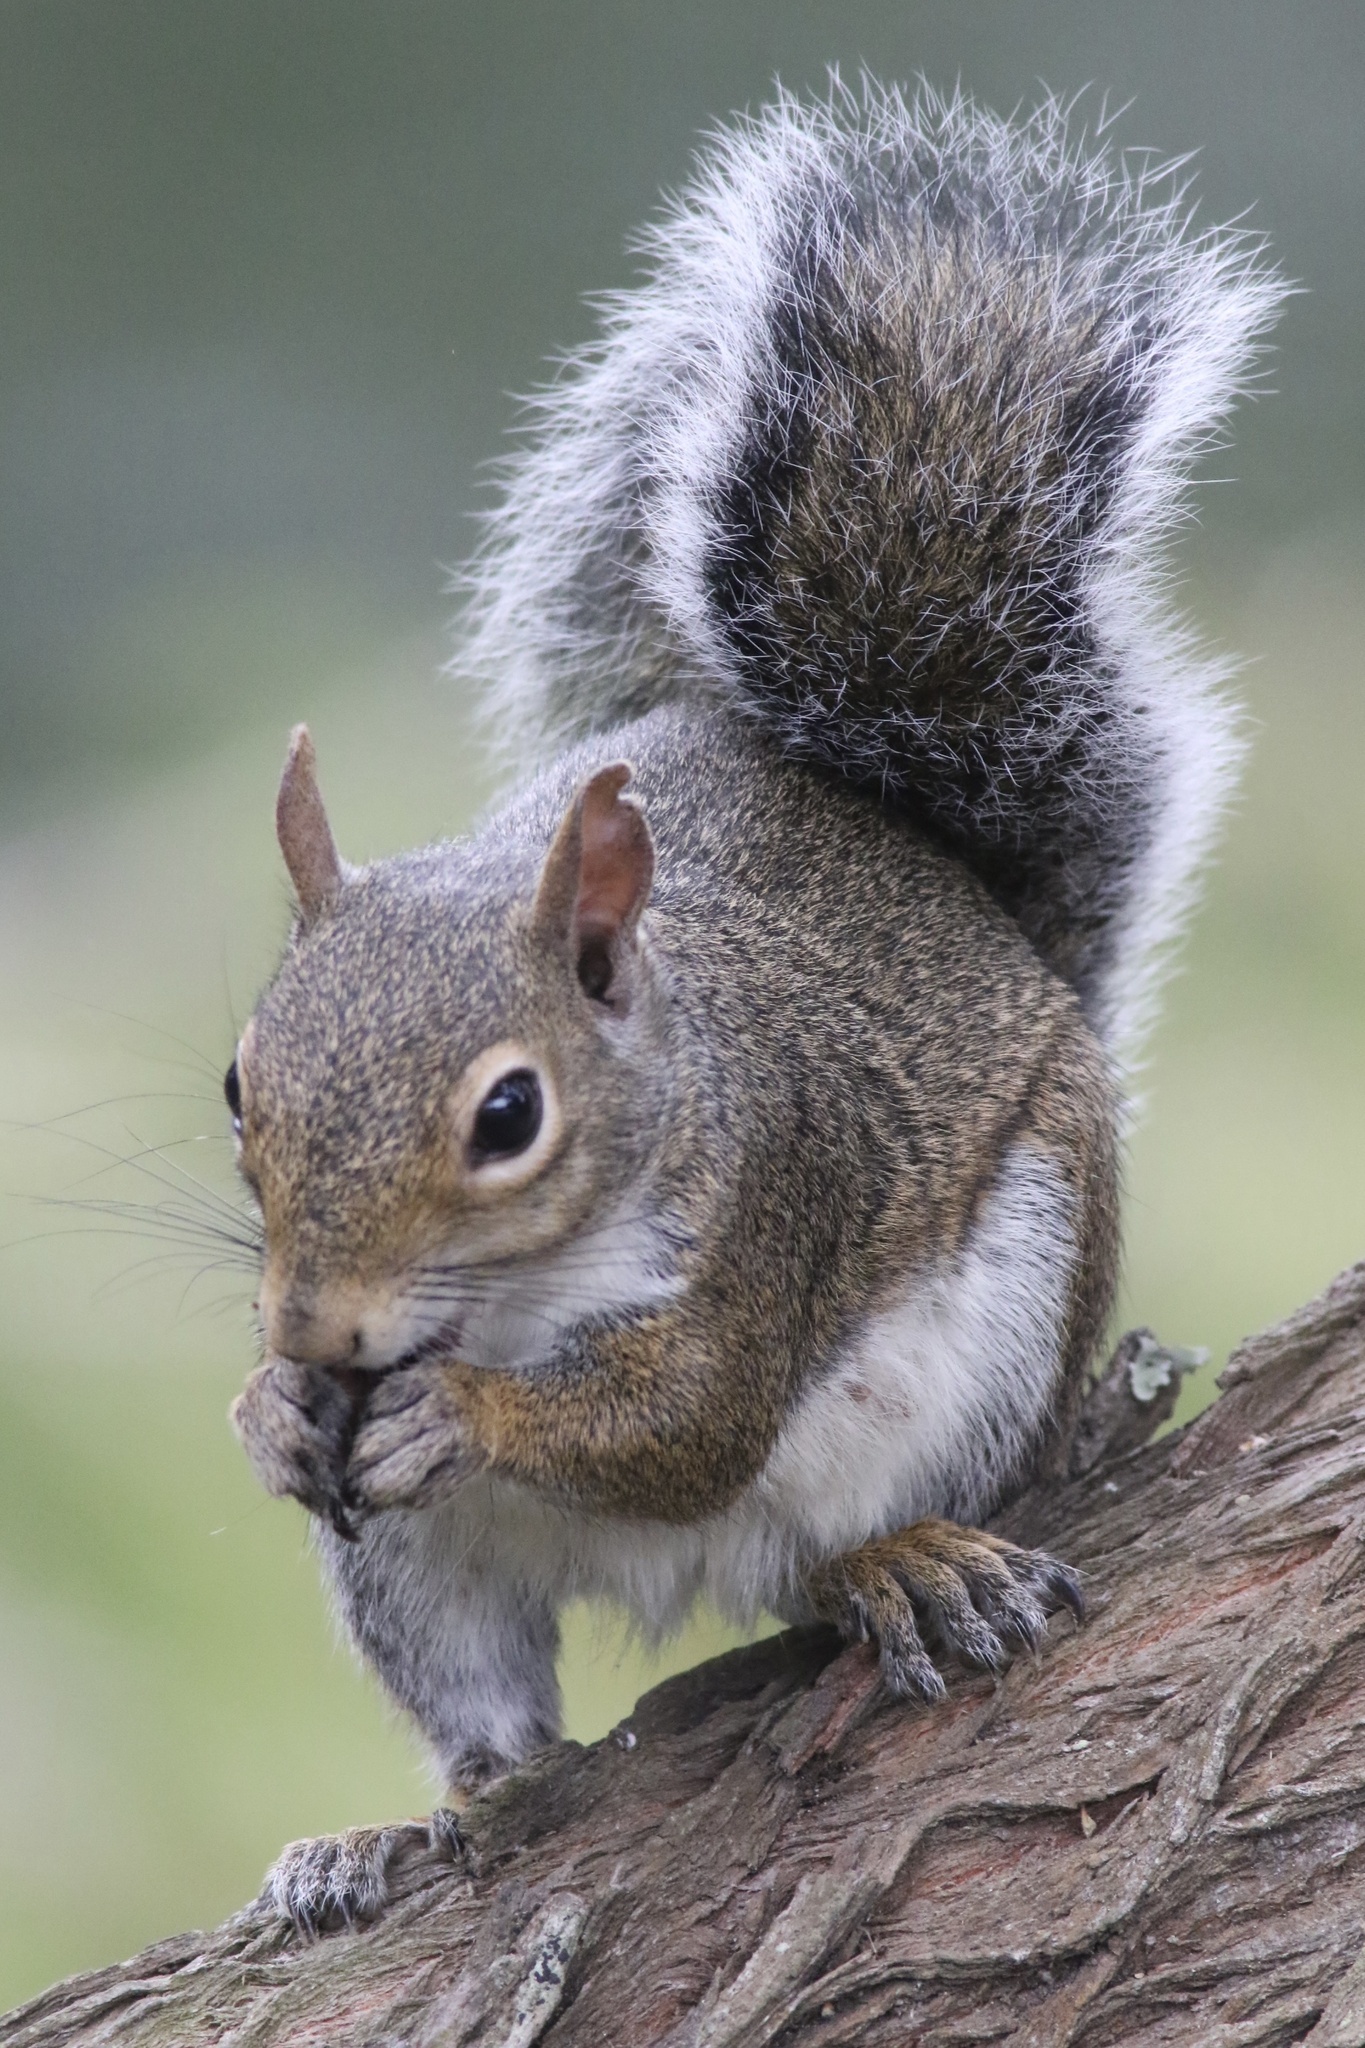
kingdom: Animalia
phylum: Chordata
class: Mammalia
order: Rodentia
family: Sciuridae
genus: Sciurus
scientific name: Sciurus carolinensis
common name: Eastern gray squirrel
